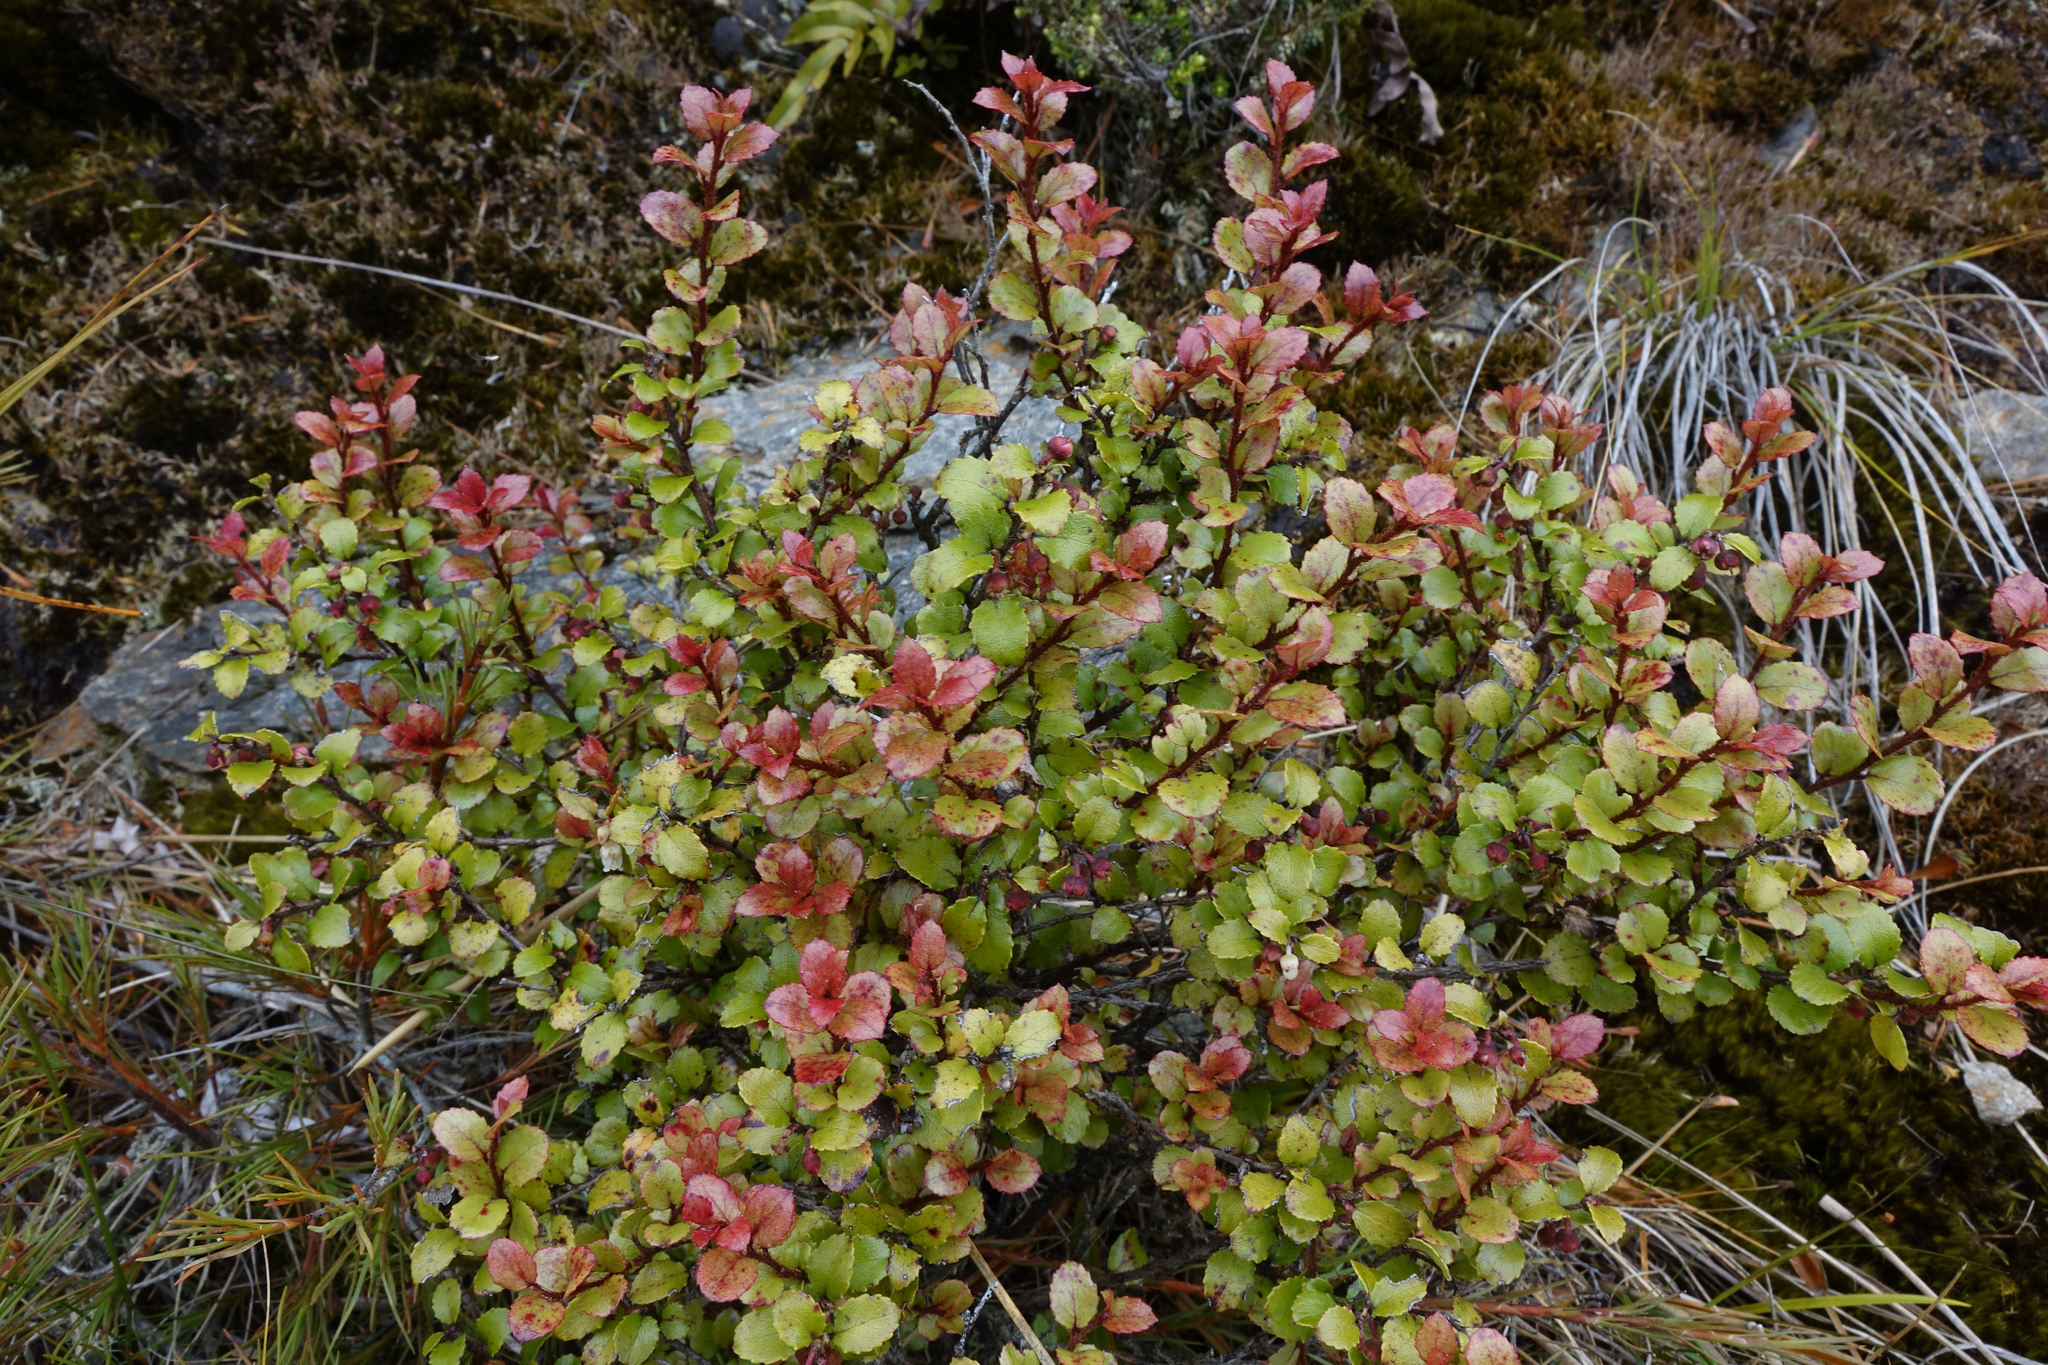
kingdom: Plantae
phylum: Tracheophyta
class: Magnoliopsida
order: Ericales
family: Ericaceae
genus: Gaultheria
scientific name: Gaultheria antipoda
